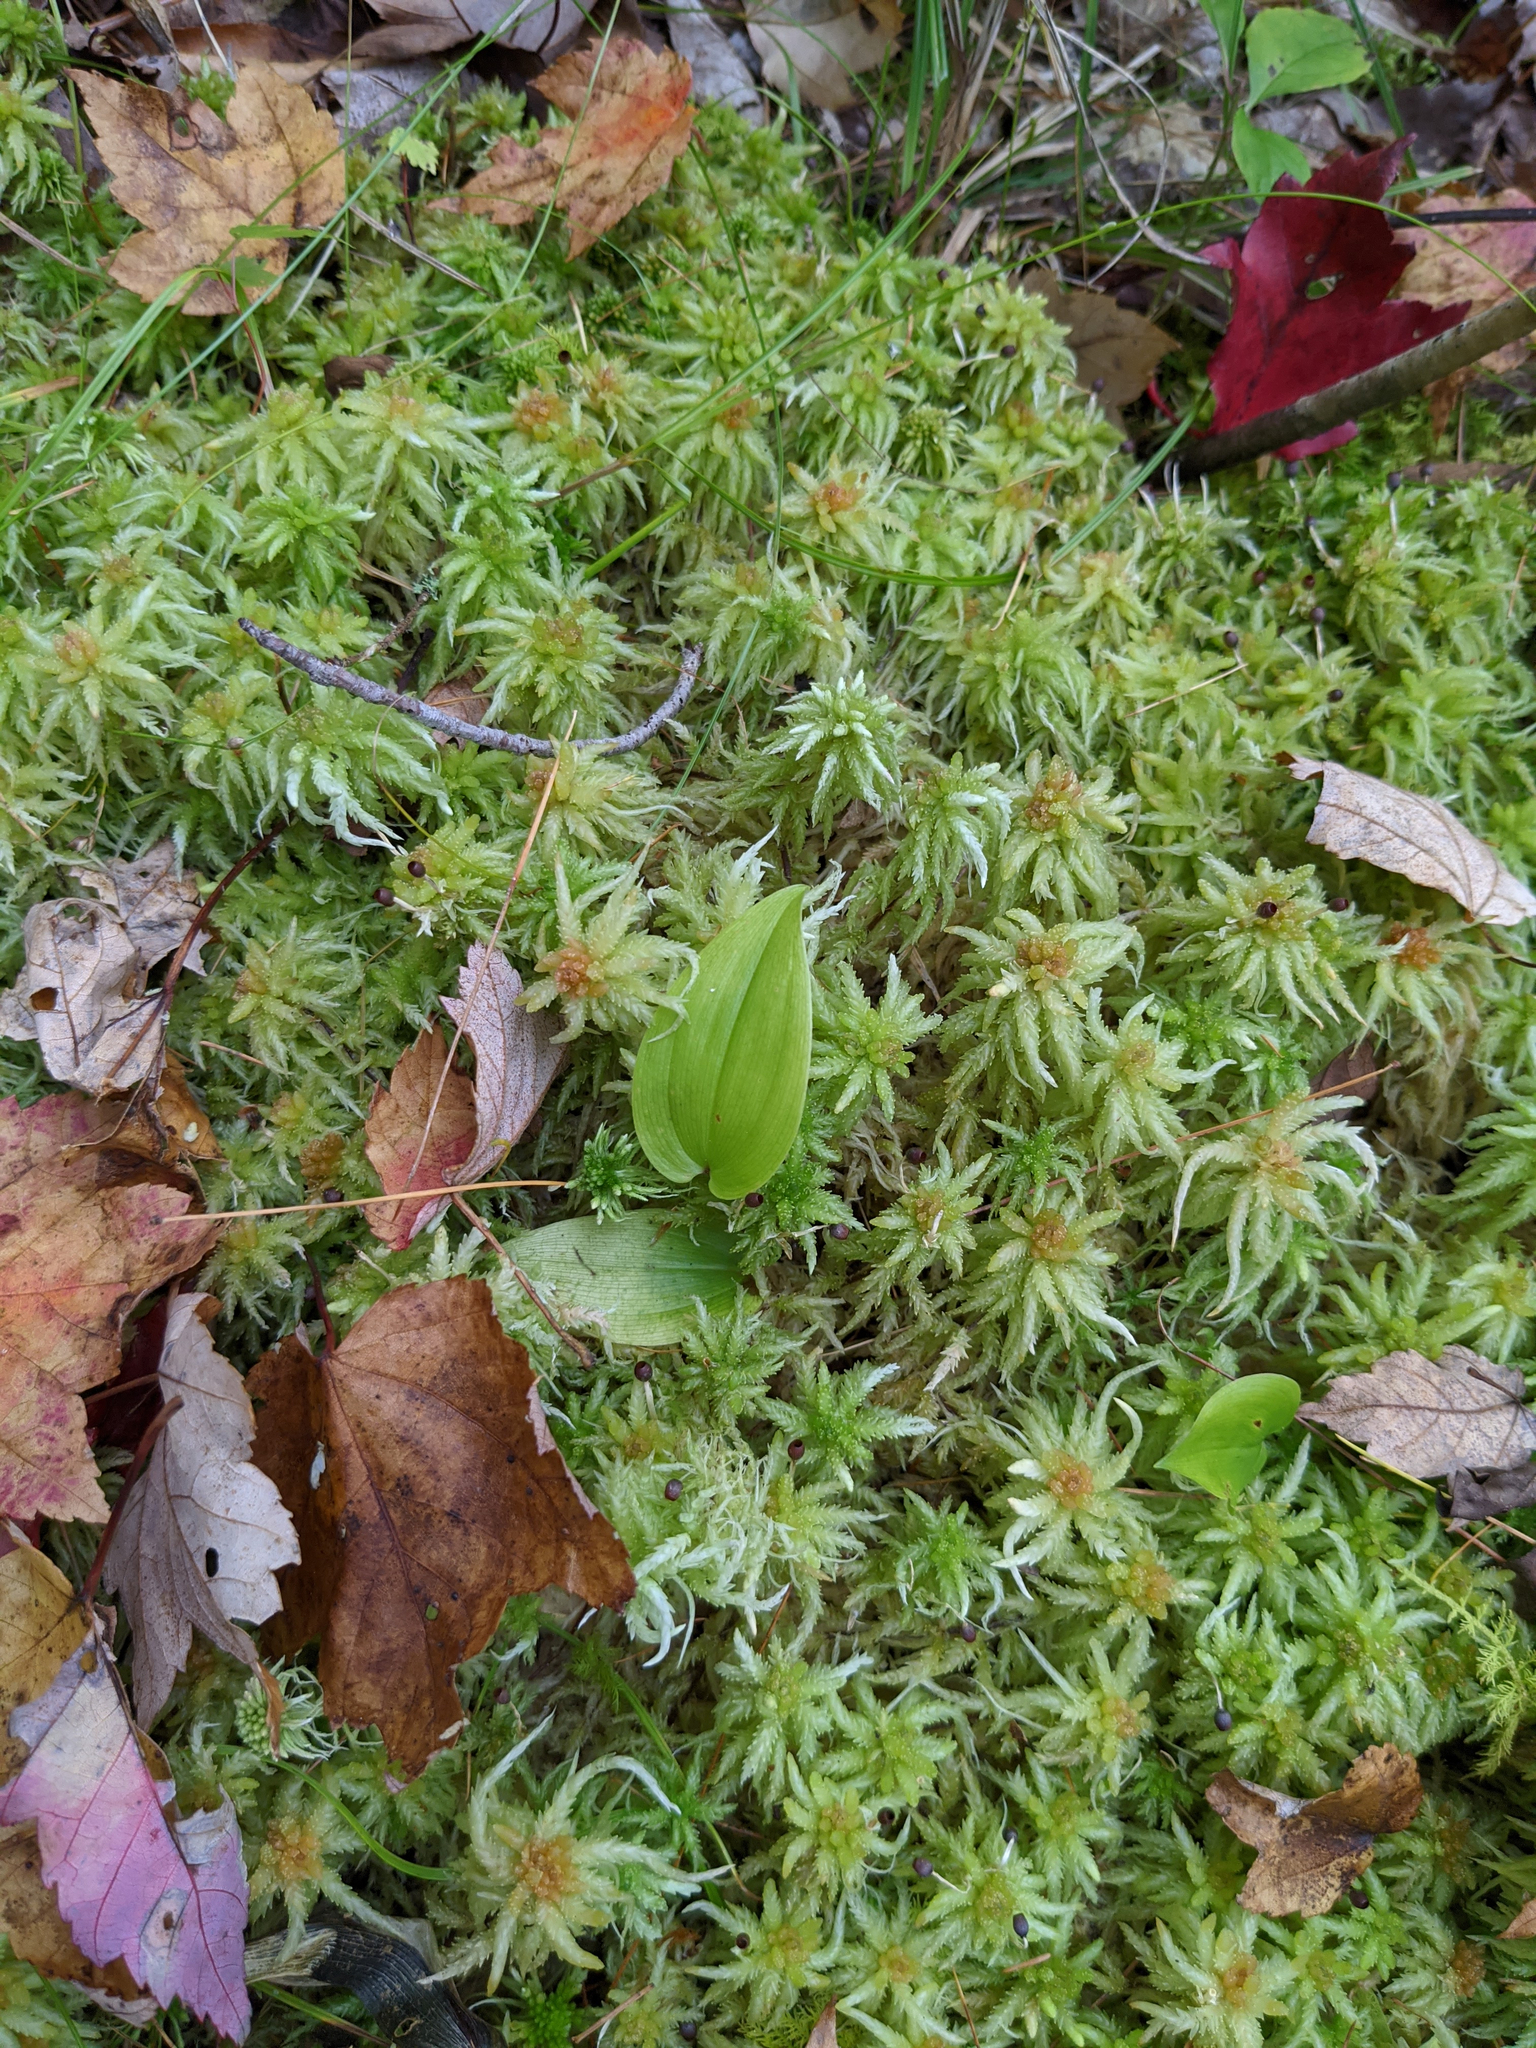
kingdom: Plantae
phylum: Tracheophyta
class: Liliopsida
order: Asparagales
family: Asparagaceae
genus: Maianthemum
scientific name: Maianthemum canadense
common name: False lily-of-the-valley
